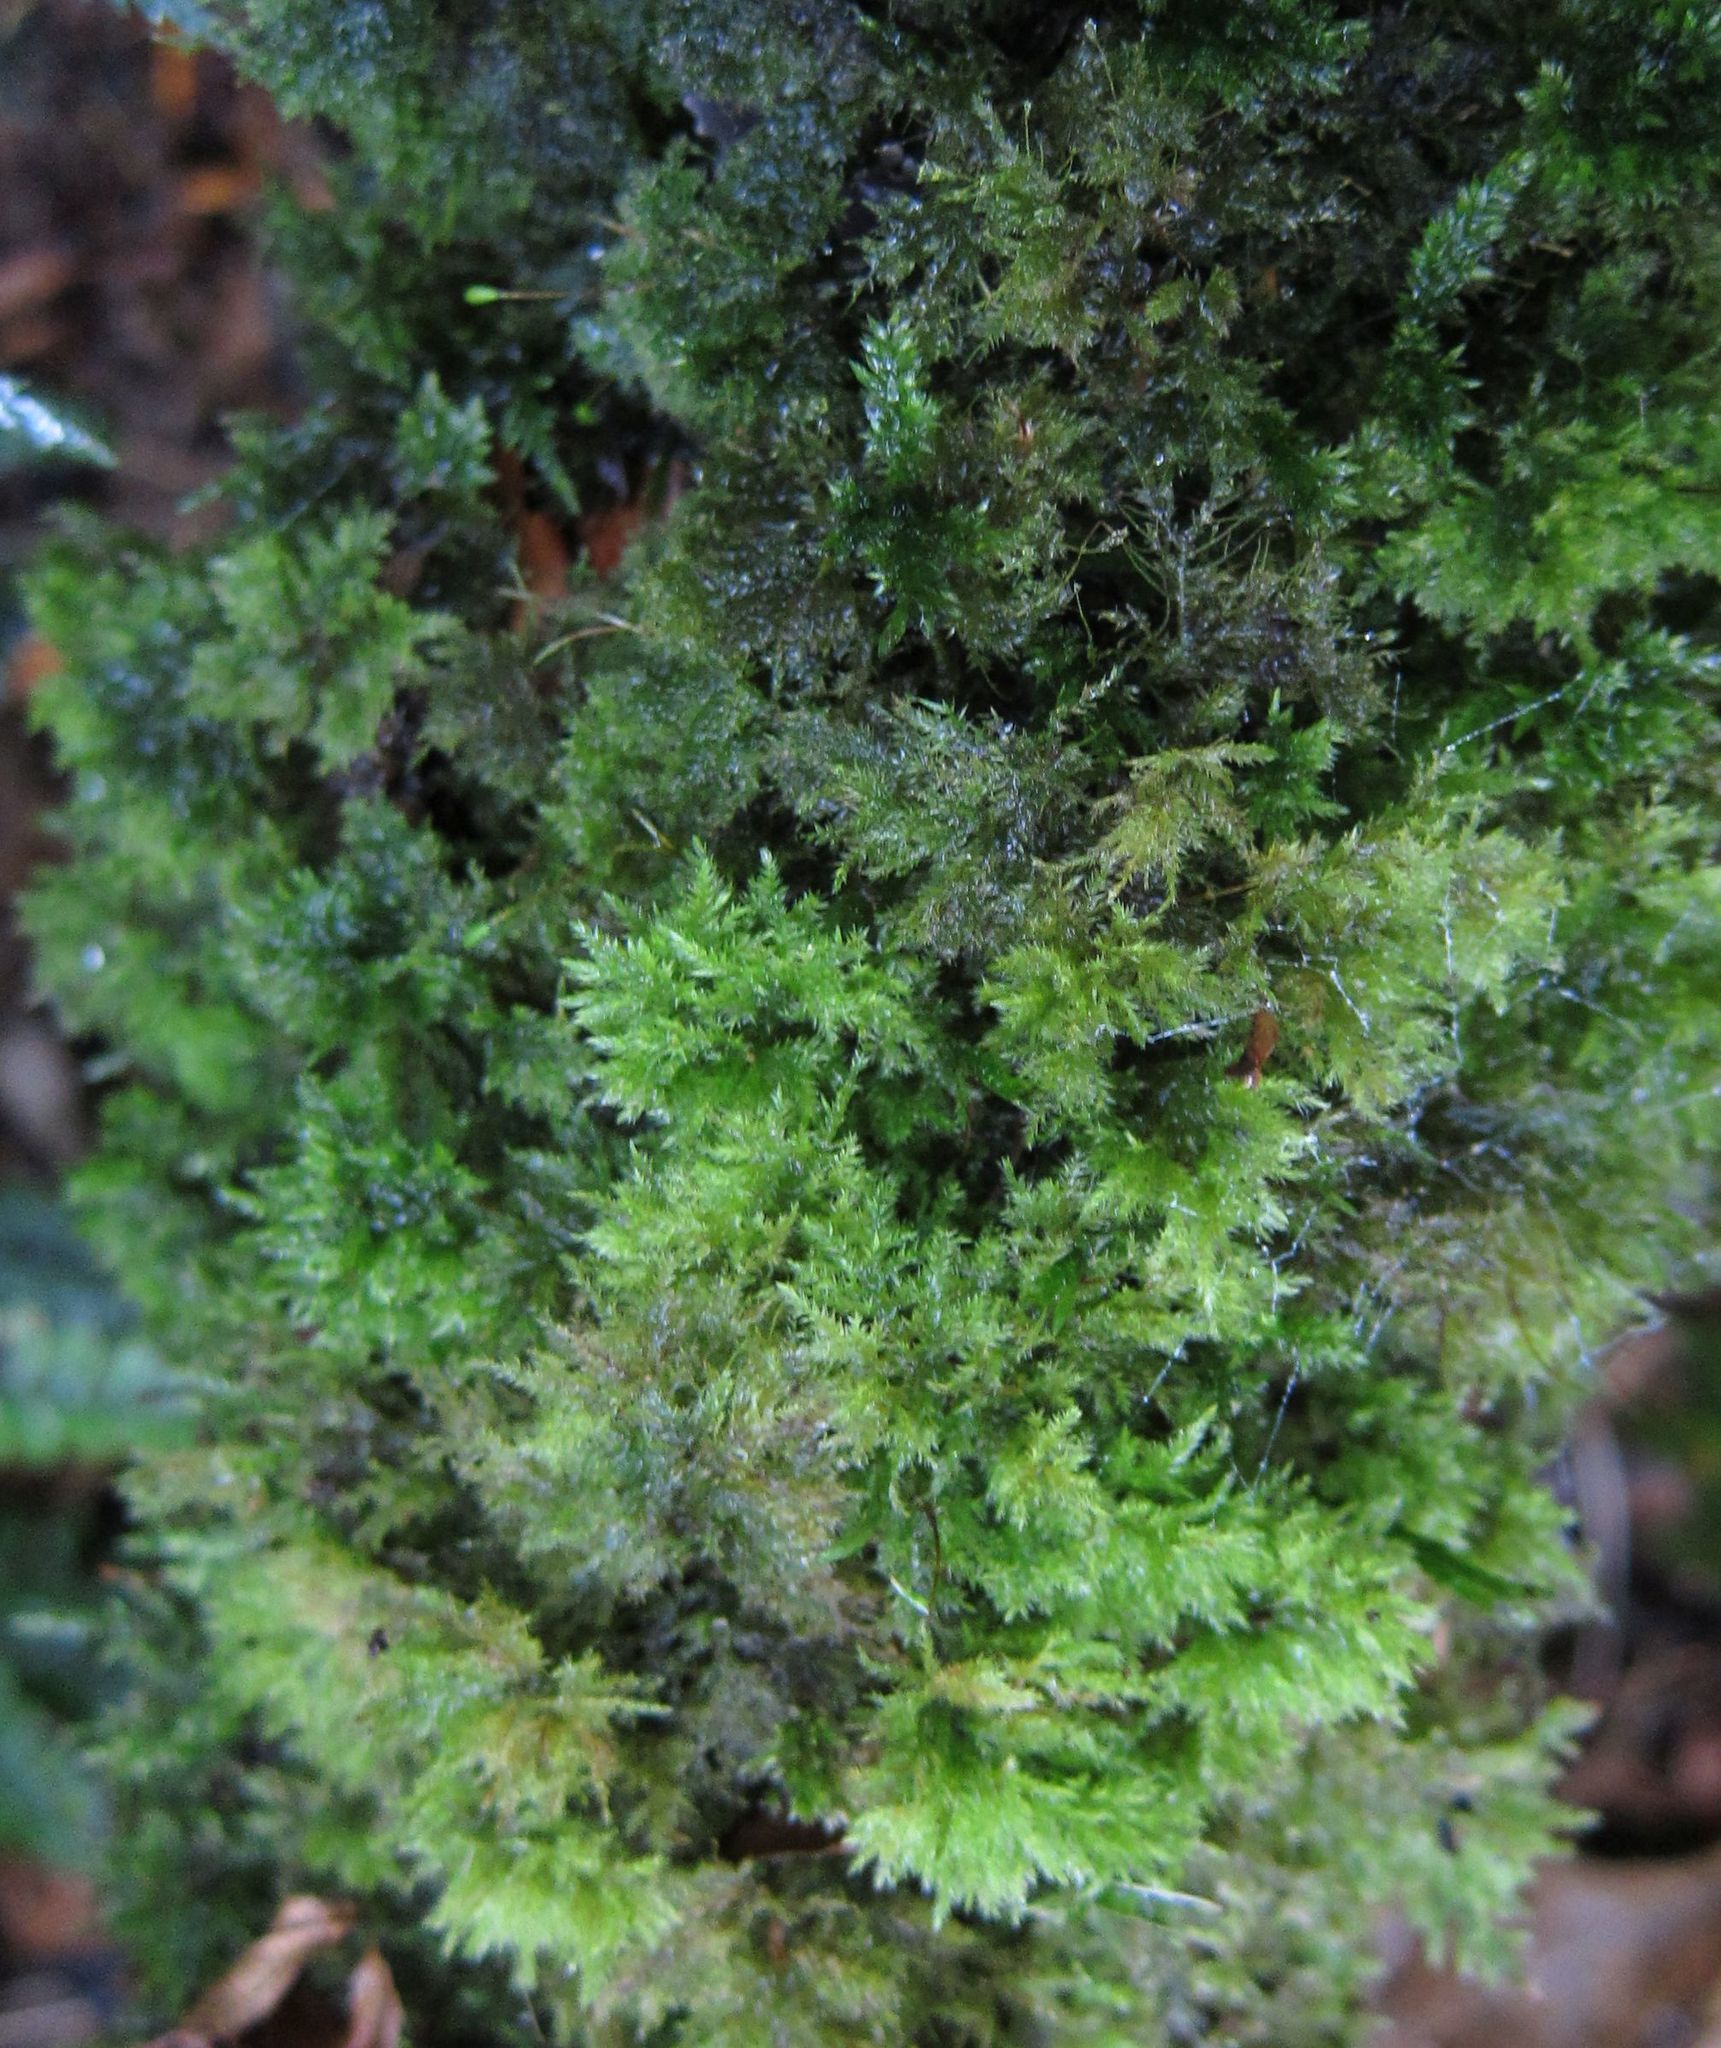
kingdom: Plantae
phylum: Bryophyta
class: Bryopsida
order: Hypnales
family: Lembophyllaceae
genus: Camptochaete
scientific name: Camptochaete arbuscula
